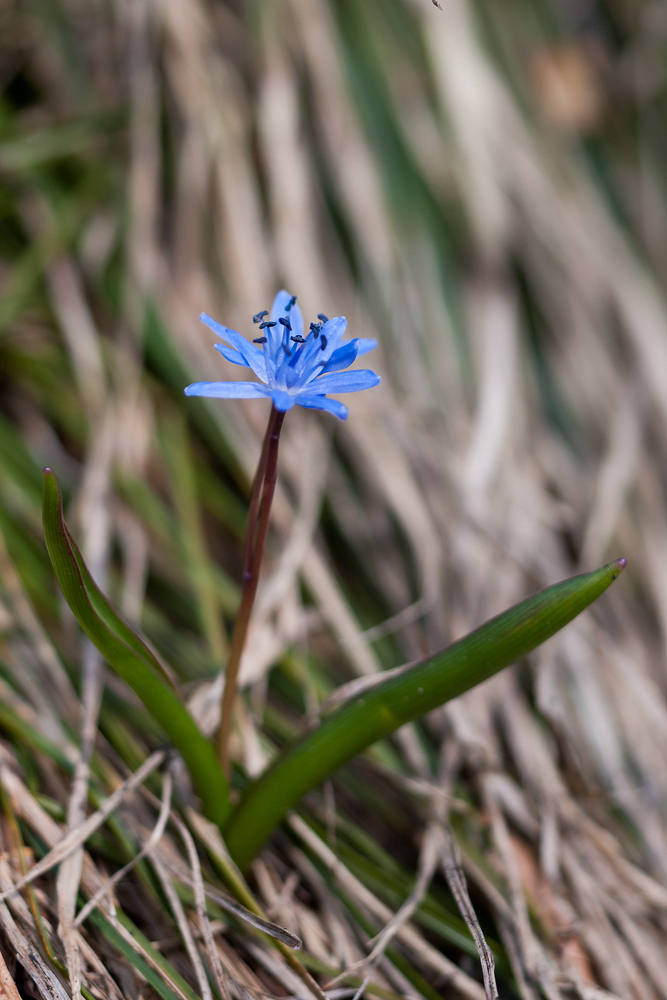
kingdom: Plantae
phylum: Tracheophyta
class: Liliopsida
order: Asparagales
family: Asparagaceae
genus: Scilla
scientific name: Scilla bifolia
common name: Alpine squill
